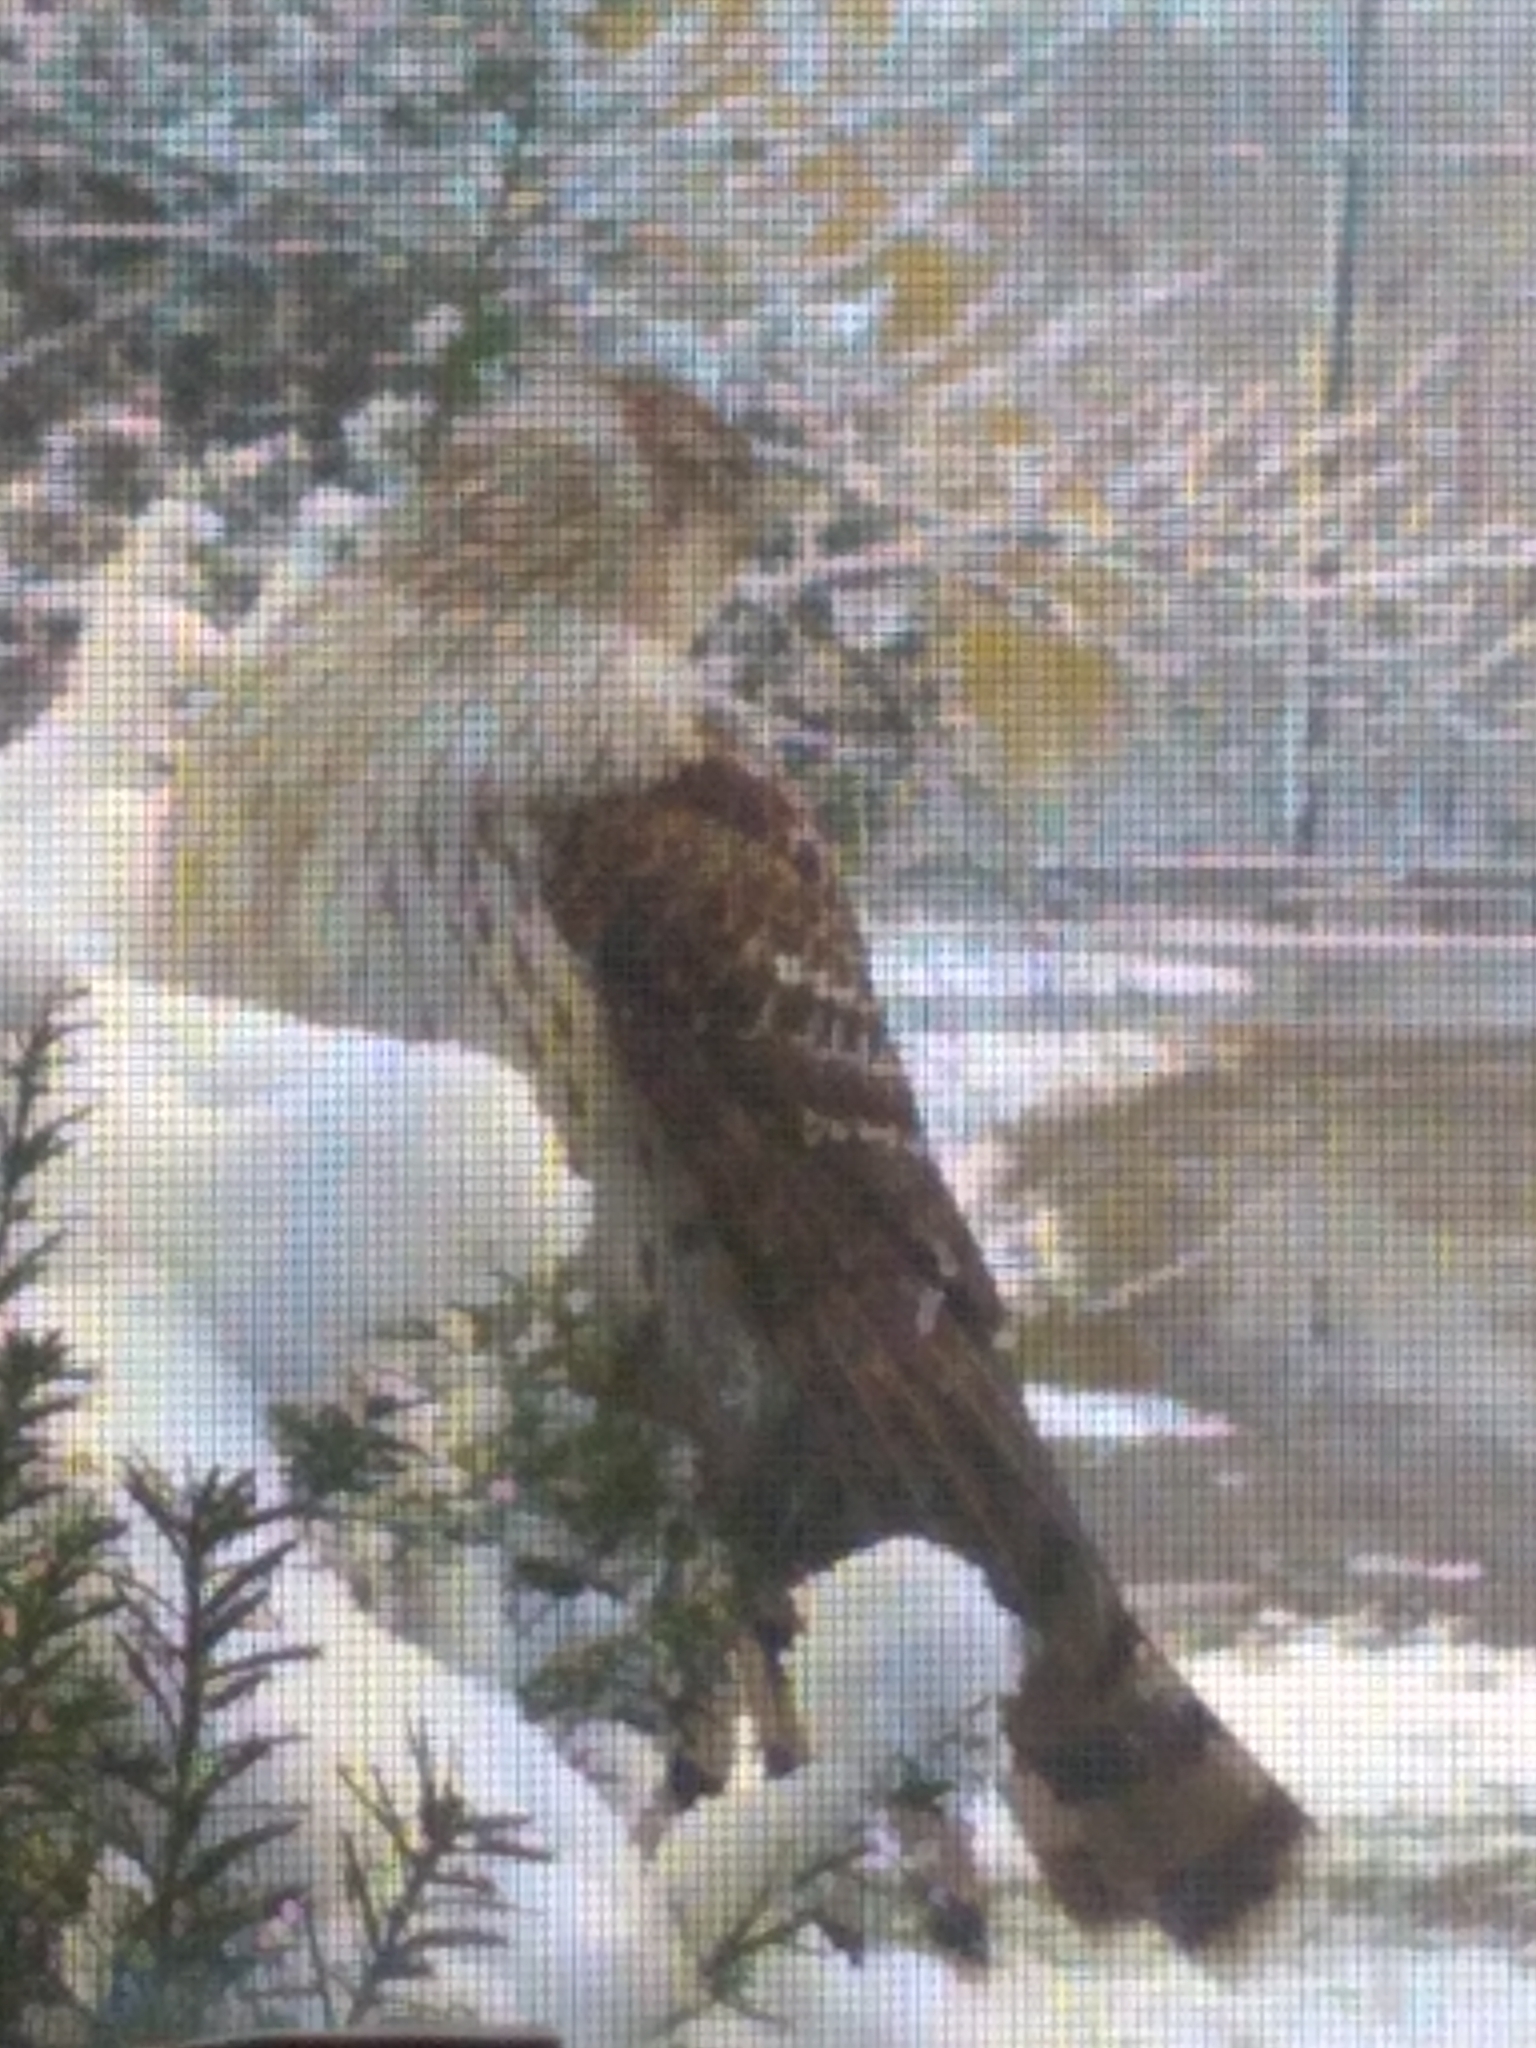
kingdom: Animalia
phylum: Chordata
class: Aves
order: Accipitriformes
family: Accipitridae
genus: Accipiter
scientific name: Accipiter cooperii
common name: Cooper's hawk
